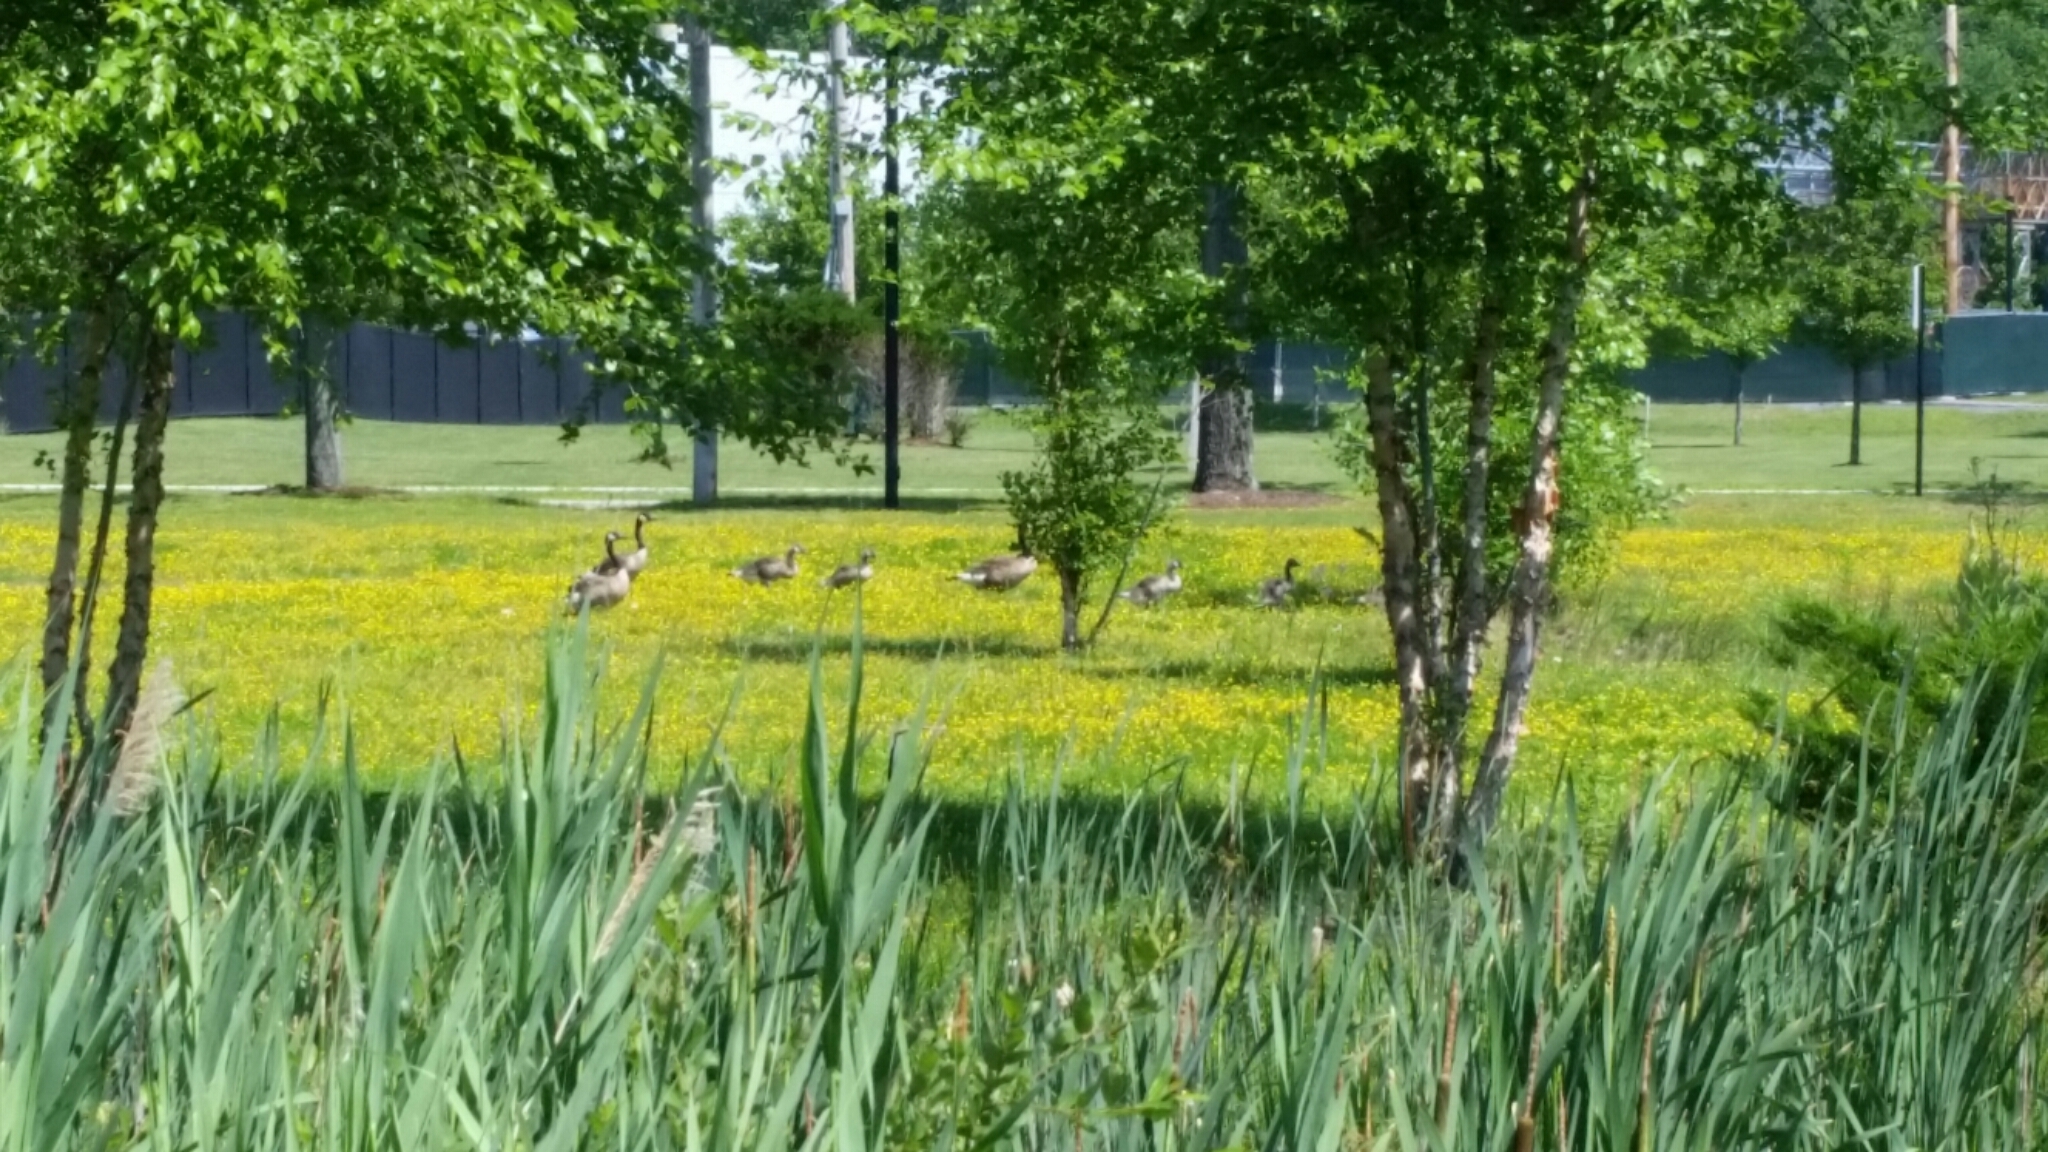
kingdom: Animalia
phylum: Chordata
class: Aves
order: Anseriformes
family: Anatidae
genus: Branta
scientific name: Branta canadensis
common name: Canada goose
